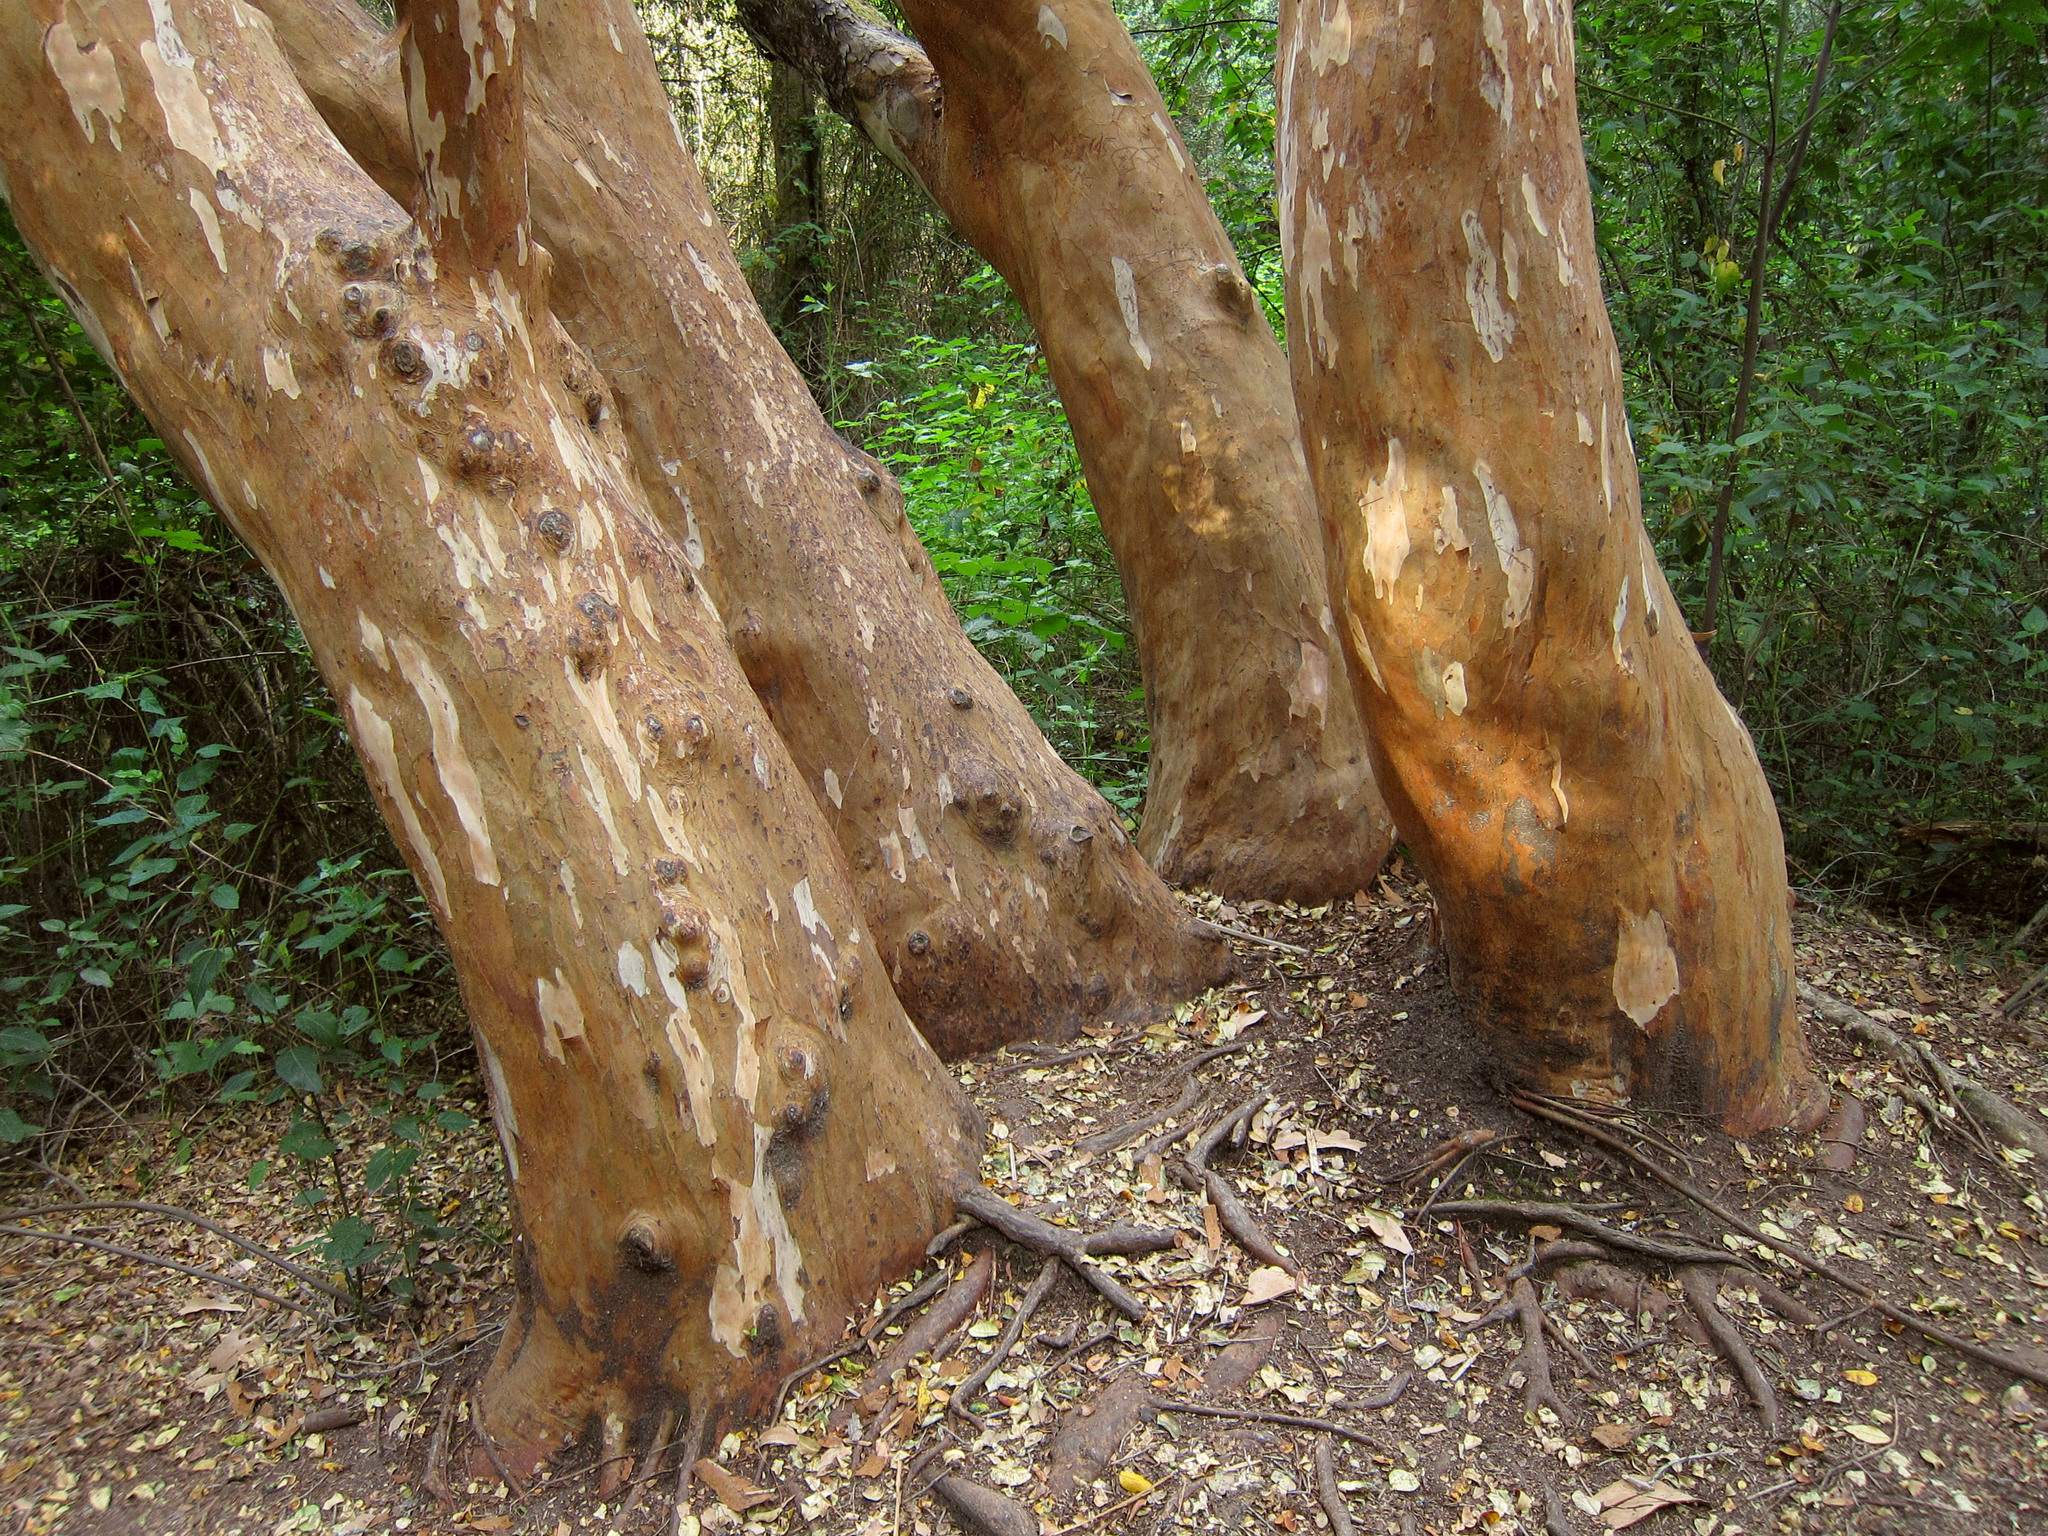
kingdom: Plantae
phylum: Tracheophyta
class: Magnoliopsida
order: Myrtales
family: Myrtaceae
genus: Luma
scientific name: Luma apiculata
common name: Chilean myrtle
